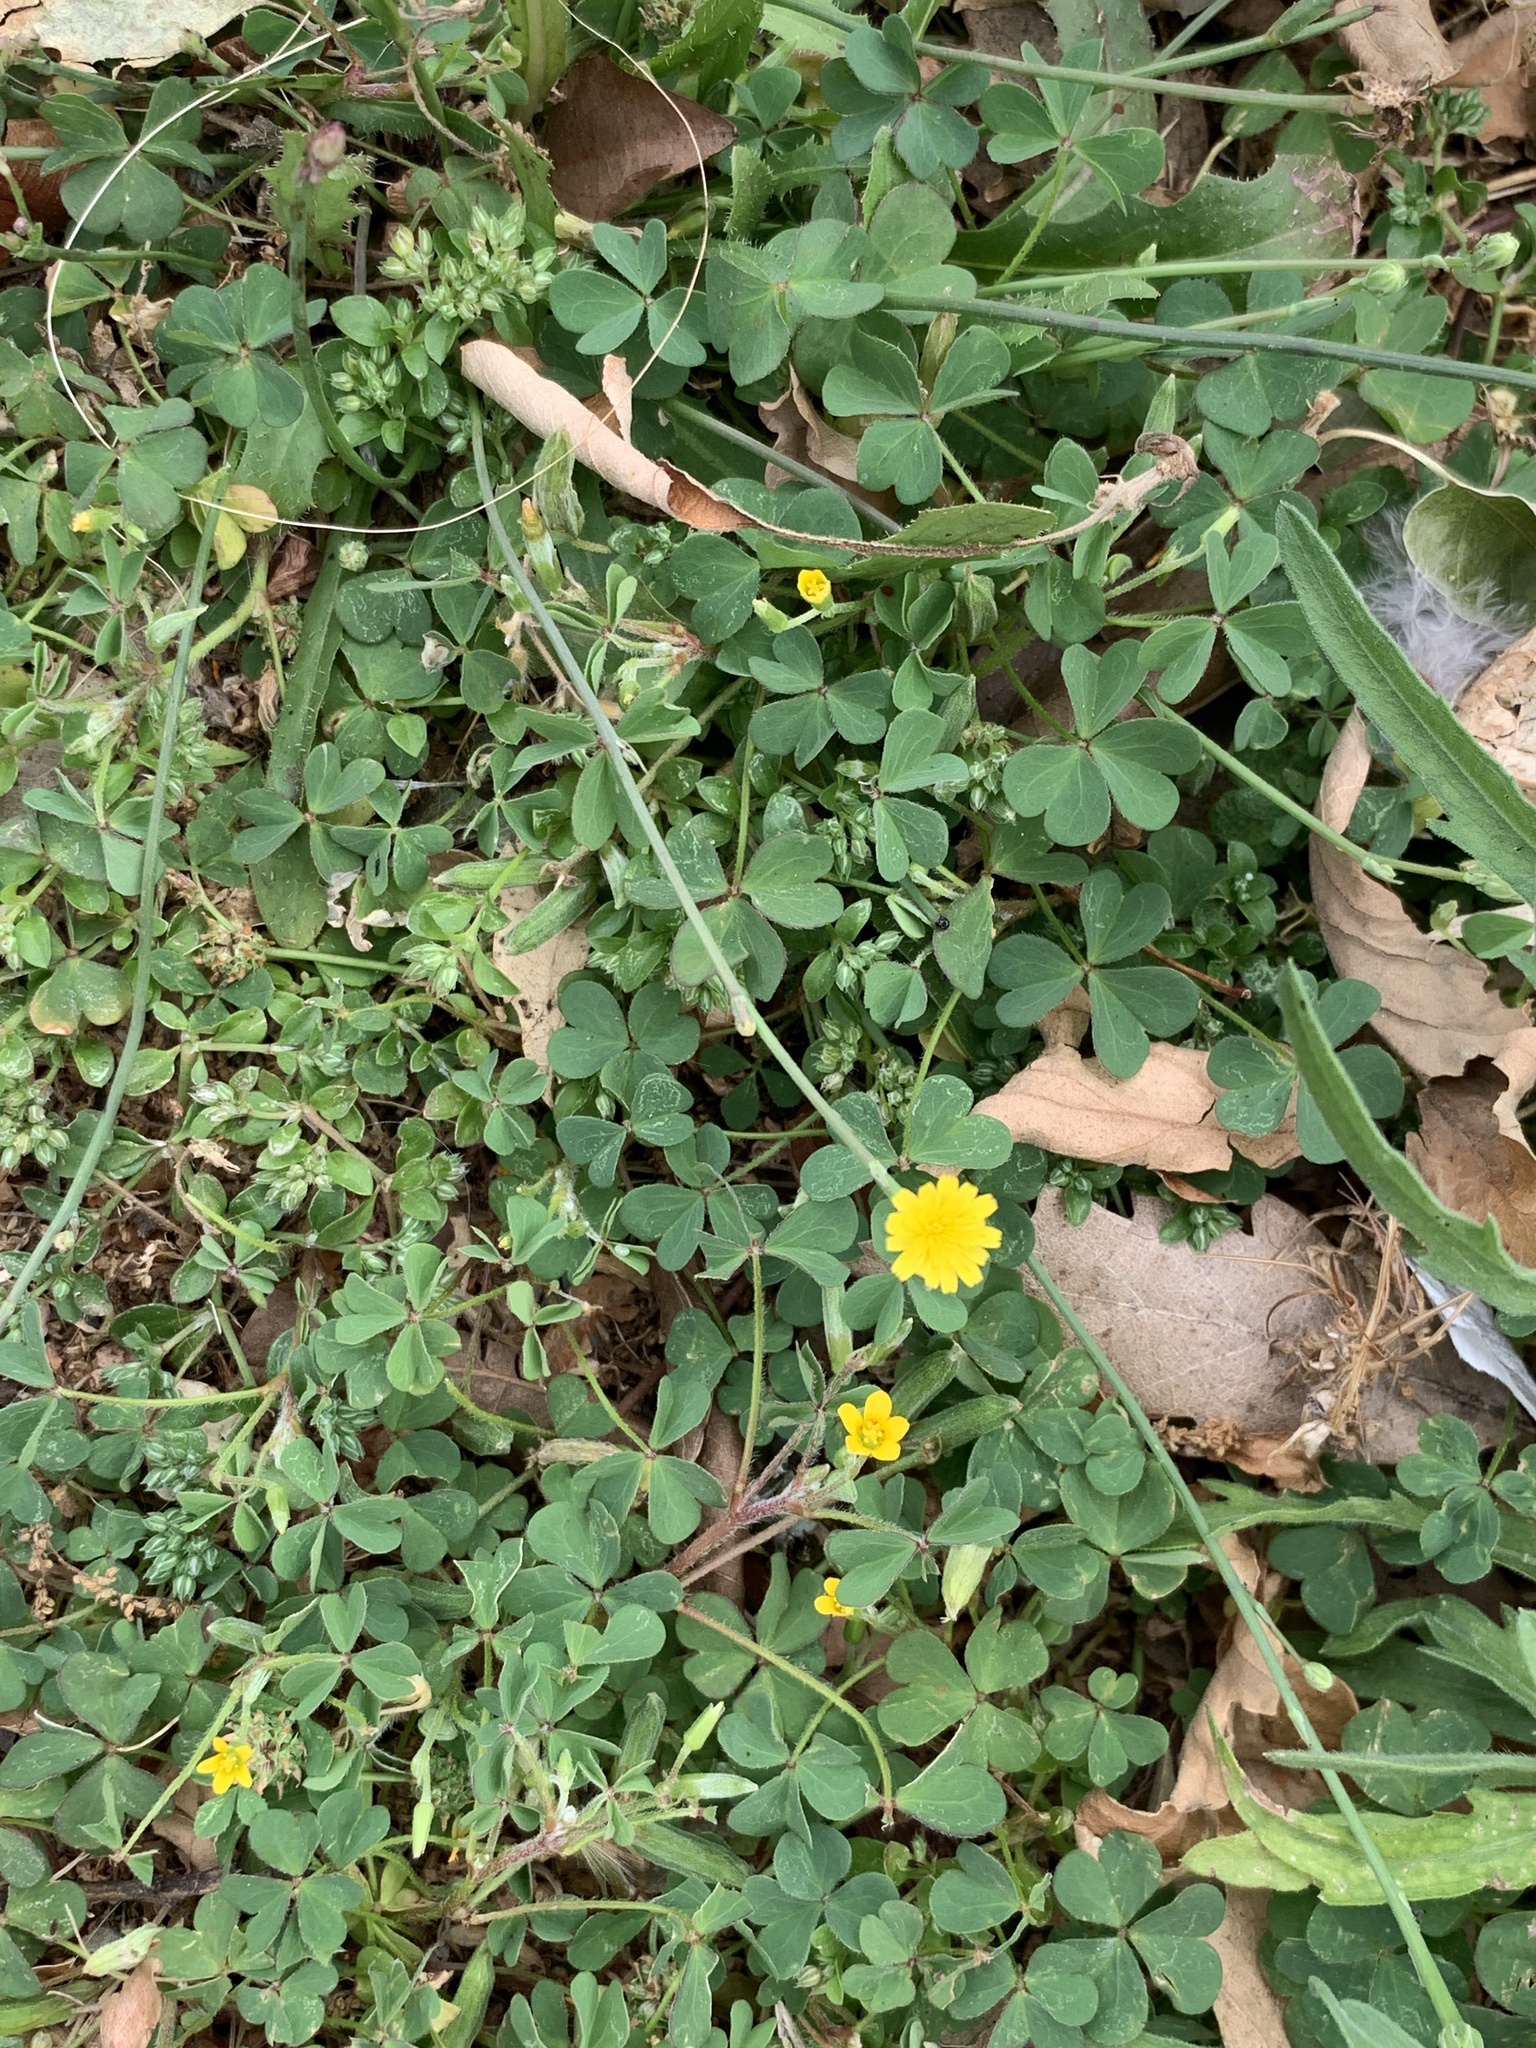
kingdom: Plantae
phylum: Tracheophyta
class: Magnoliopsida
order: Asterales
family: Asteraceae
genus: Hypochaeris
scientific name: Hypochaeris radicata
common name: Flatweed
